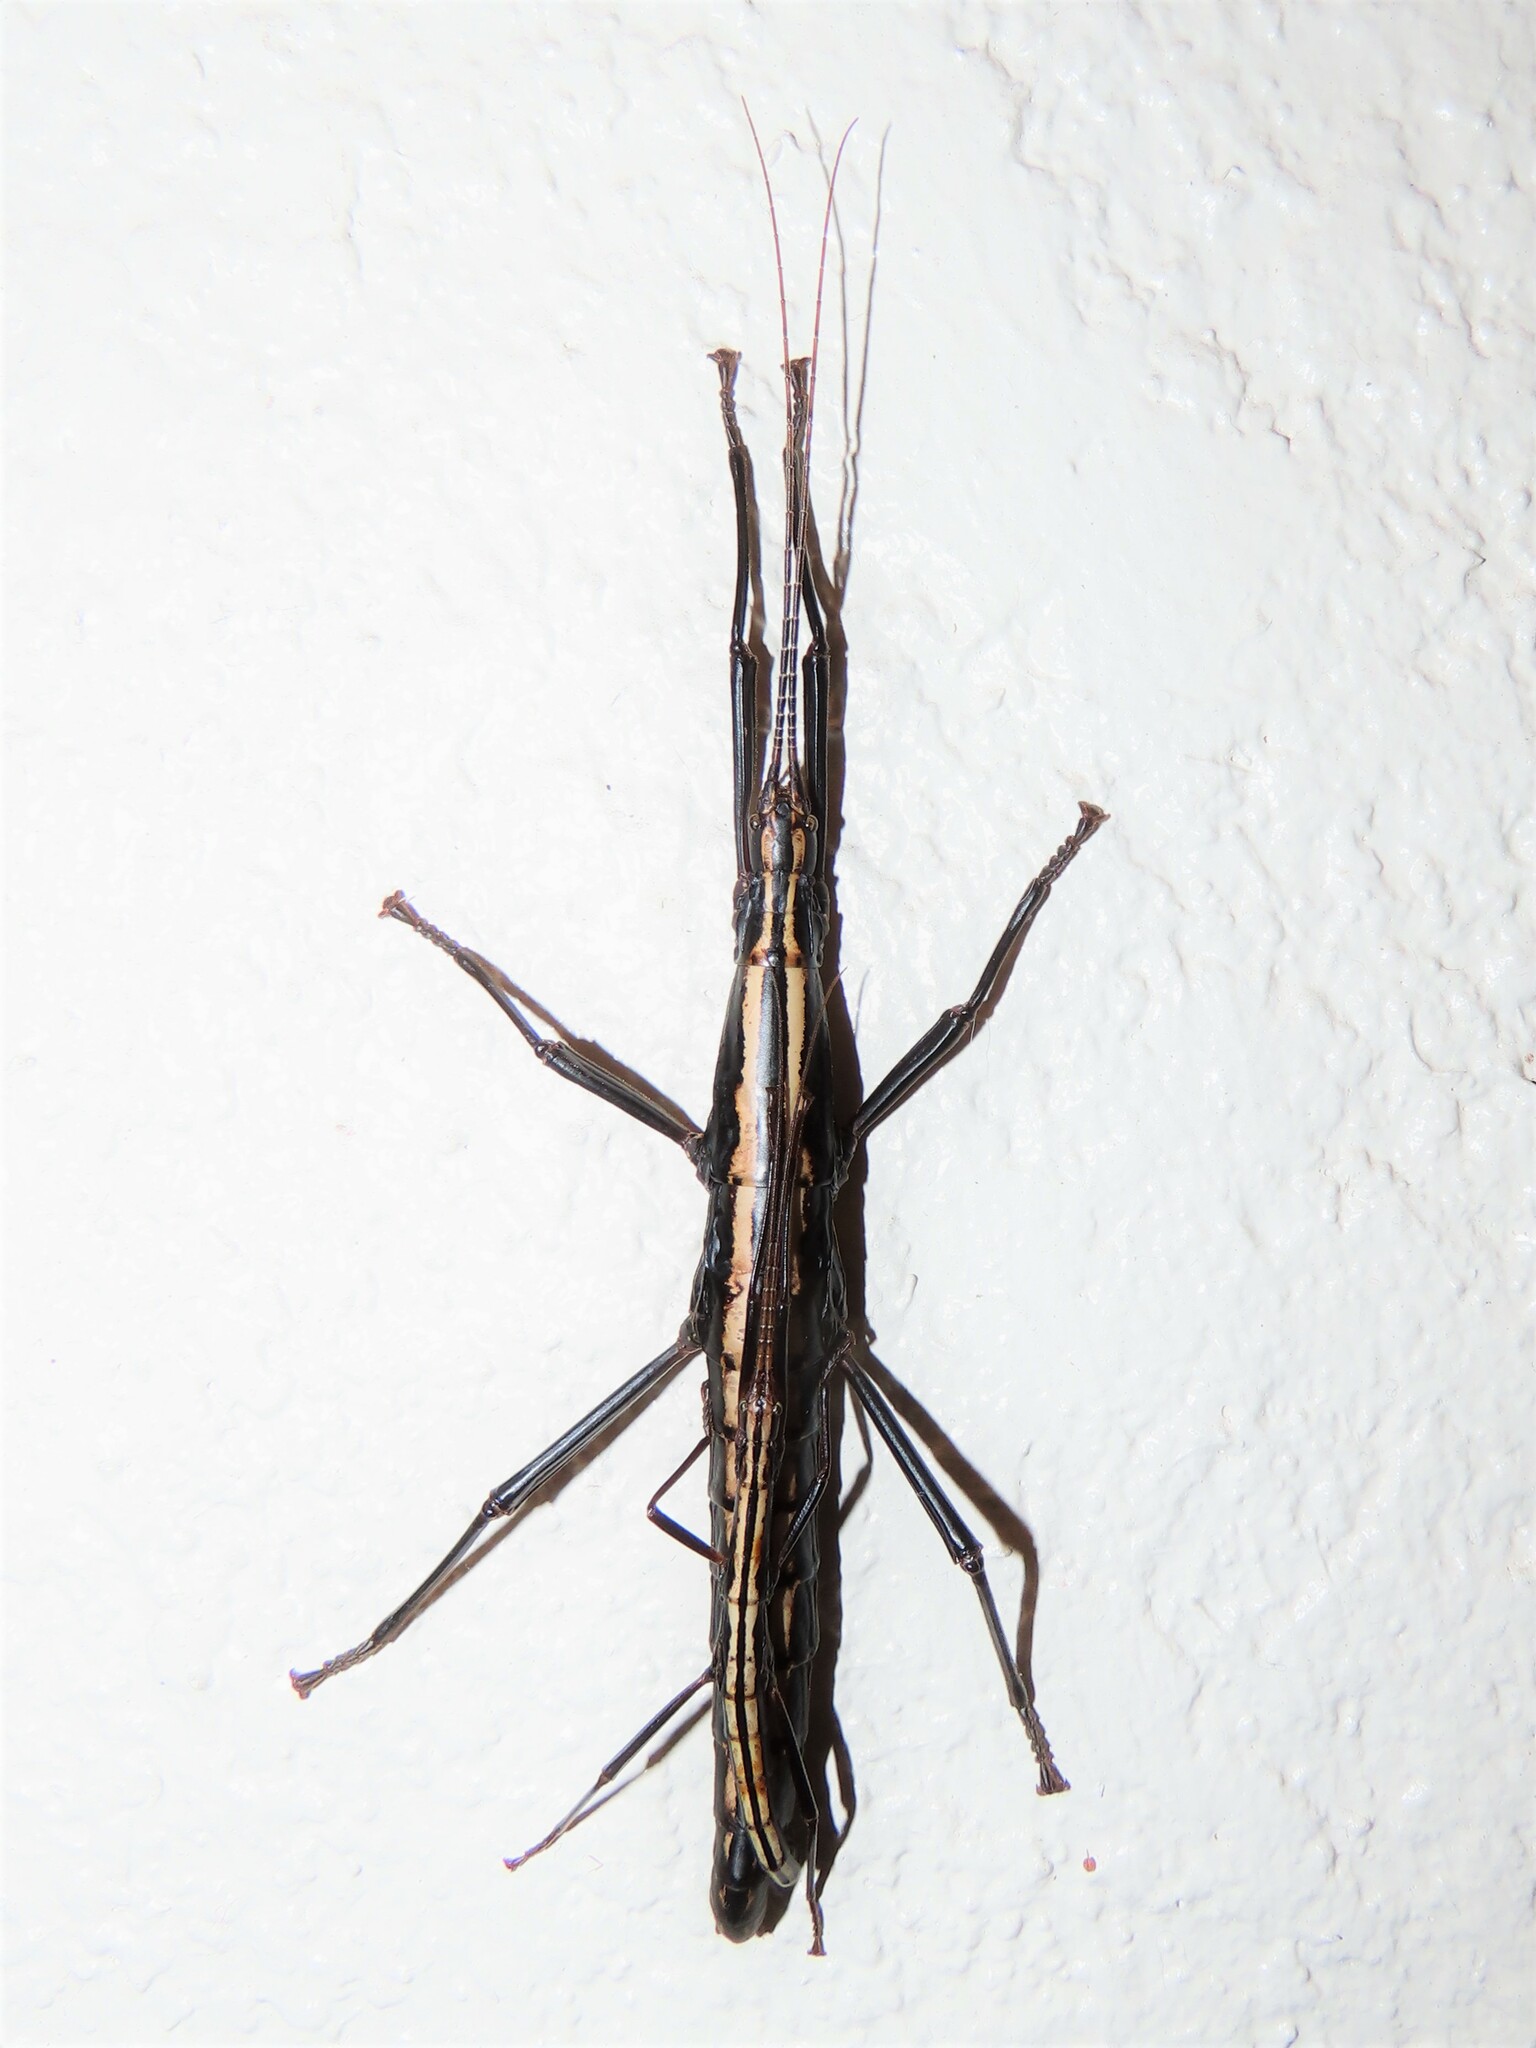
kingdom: Animalia
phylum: Arthropoda
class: Insecta
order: Phasmida
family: Pseudophasmatidae
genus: Anisomorpha
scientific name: Anisomorpha buprestoides
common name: Florida stick insect
